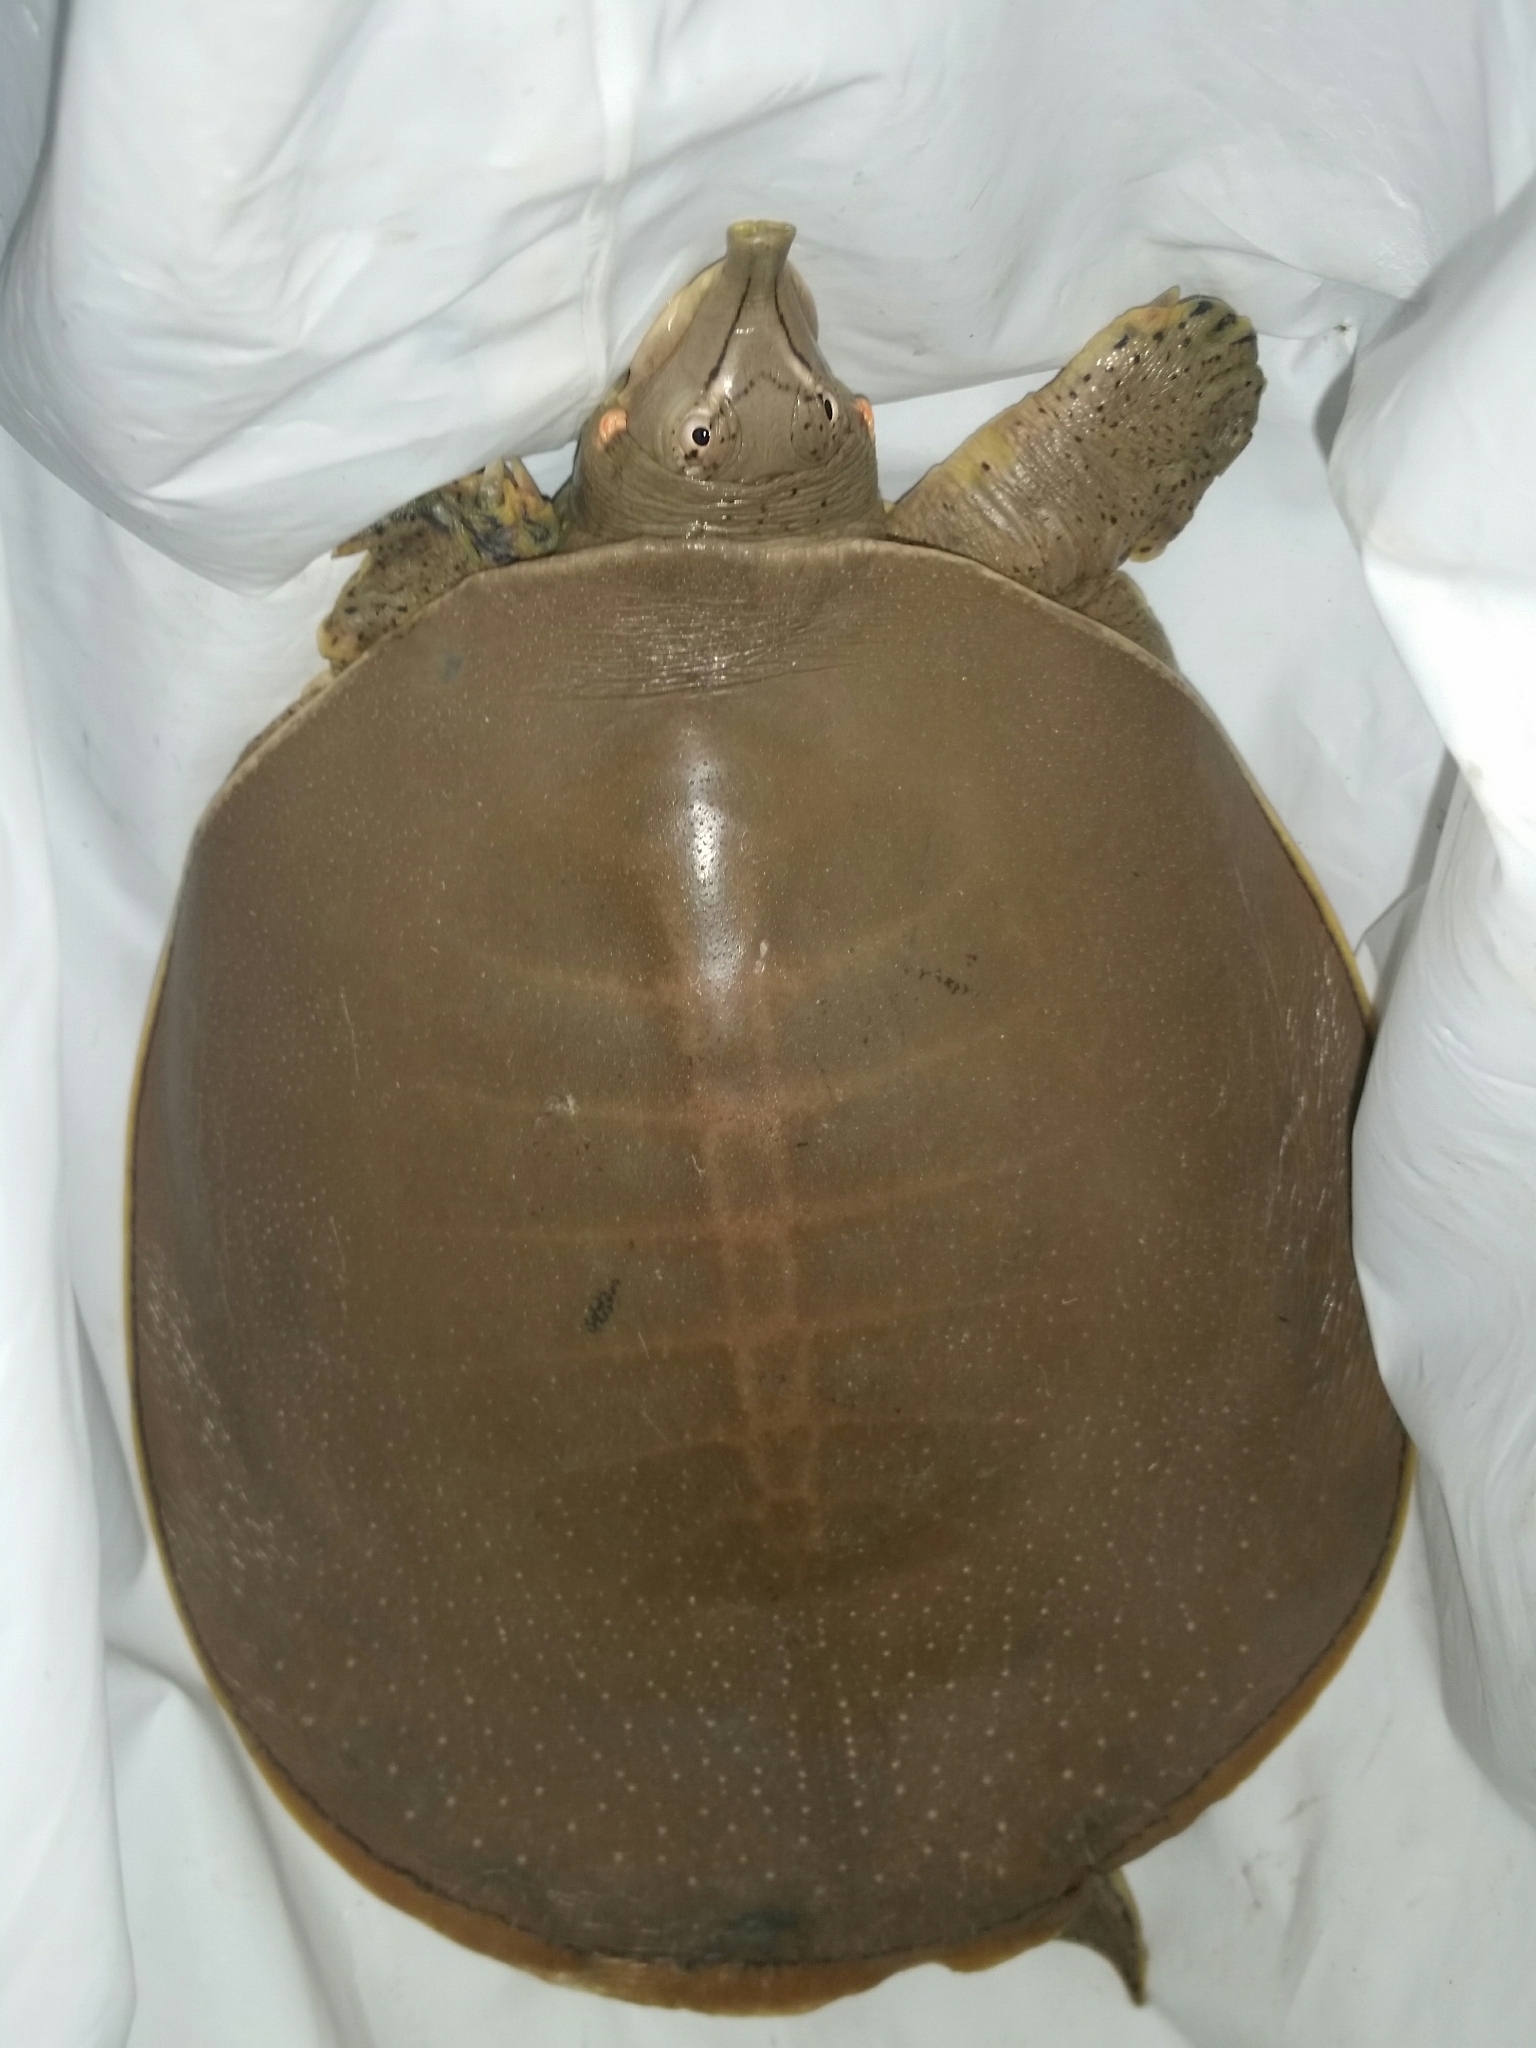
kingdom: Animalia
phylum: Chordata
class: Testudines
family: Trionychidae
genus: Apalone
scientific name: Apalone spinifera
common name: Spiny softshell turtle
